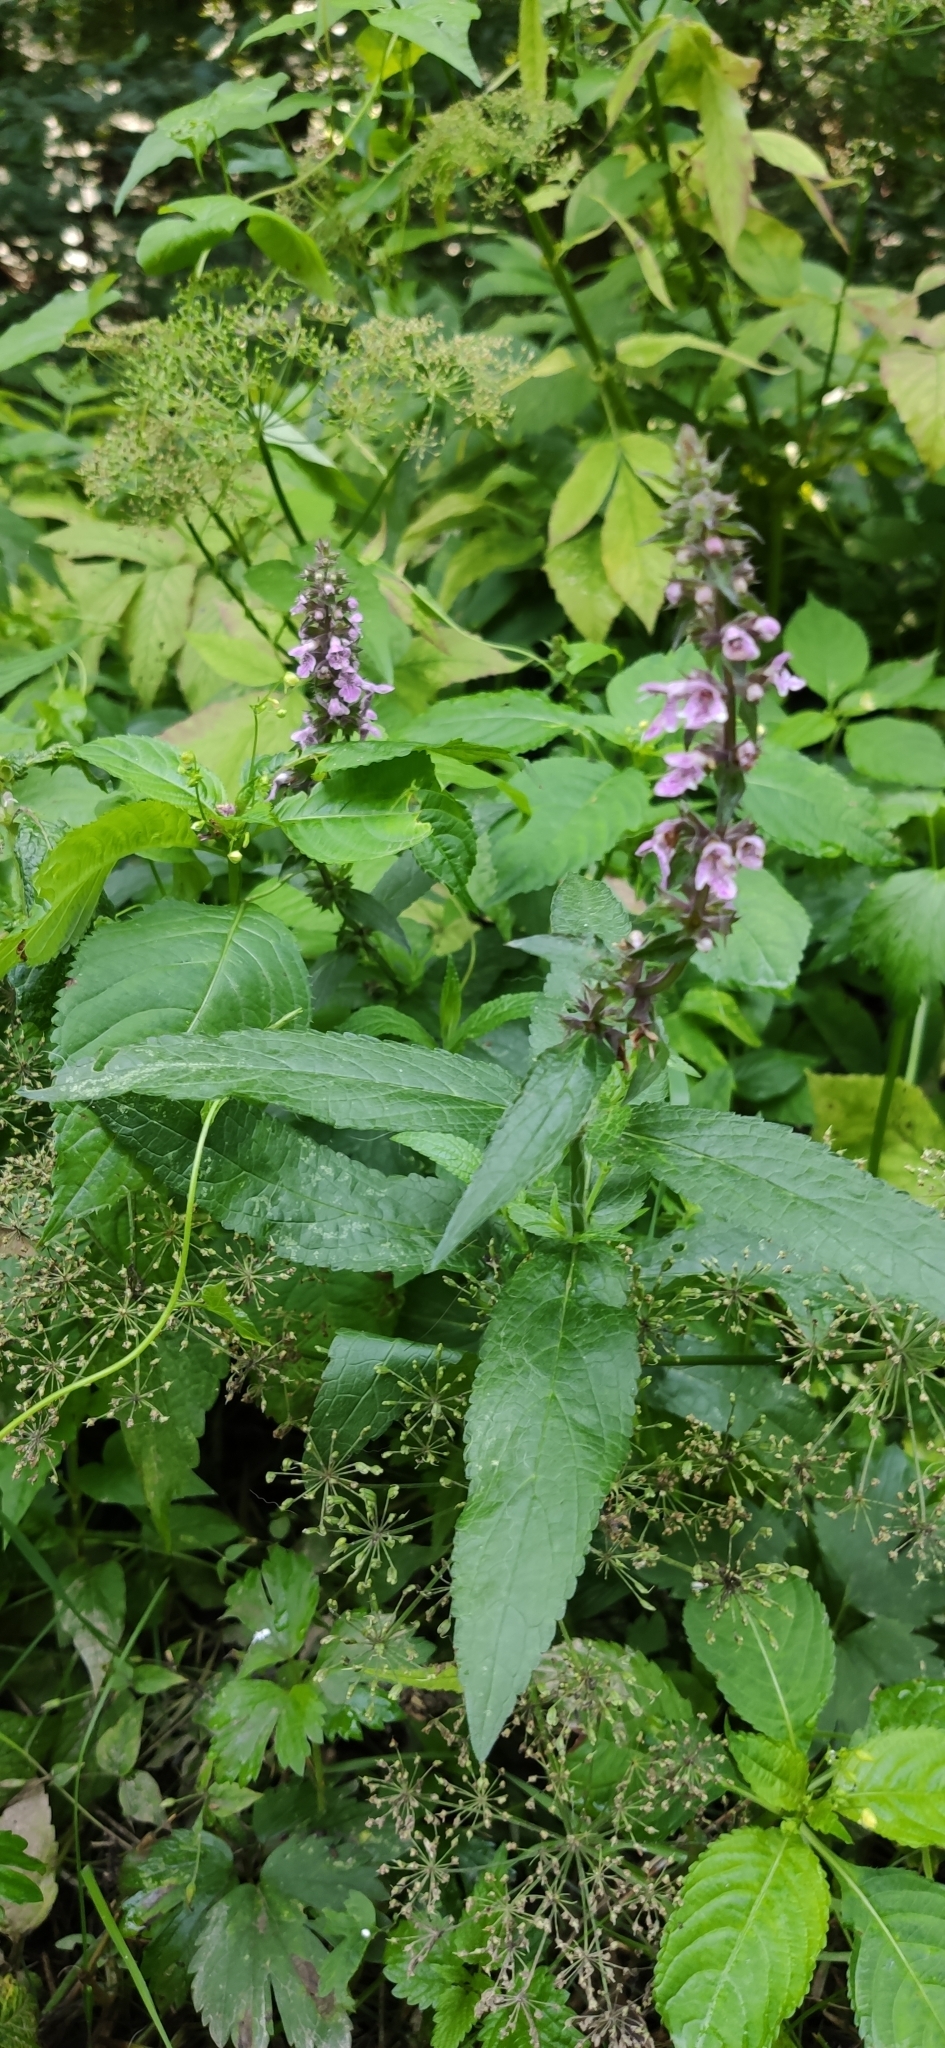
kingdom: Plantae
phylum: Tracheophyta
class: Magnoliopsida
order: Lamiales
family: Lamiaceae
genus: Stachys
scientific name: Stachys palustris
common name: Marsh woundwort
